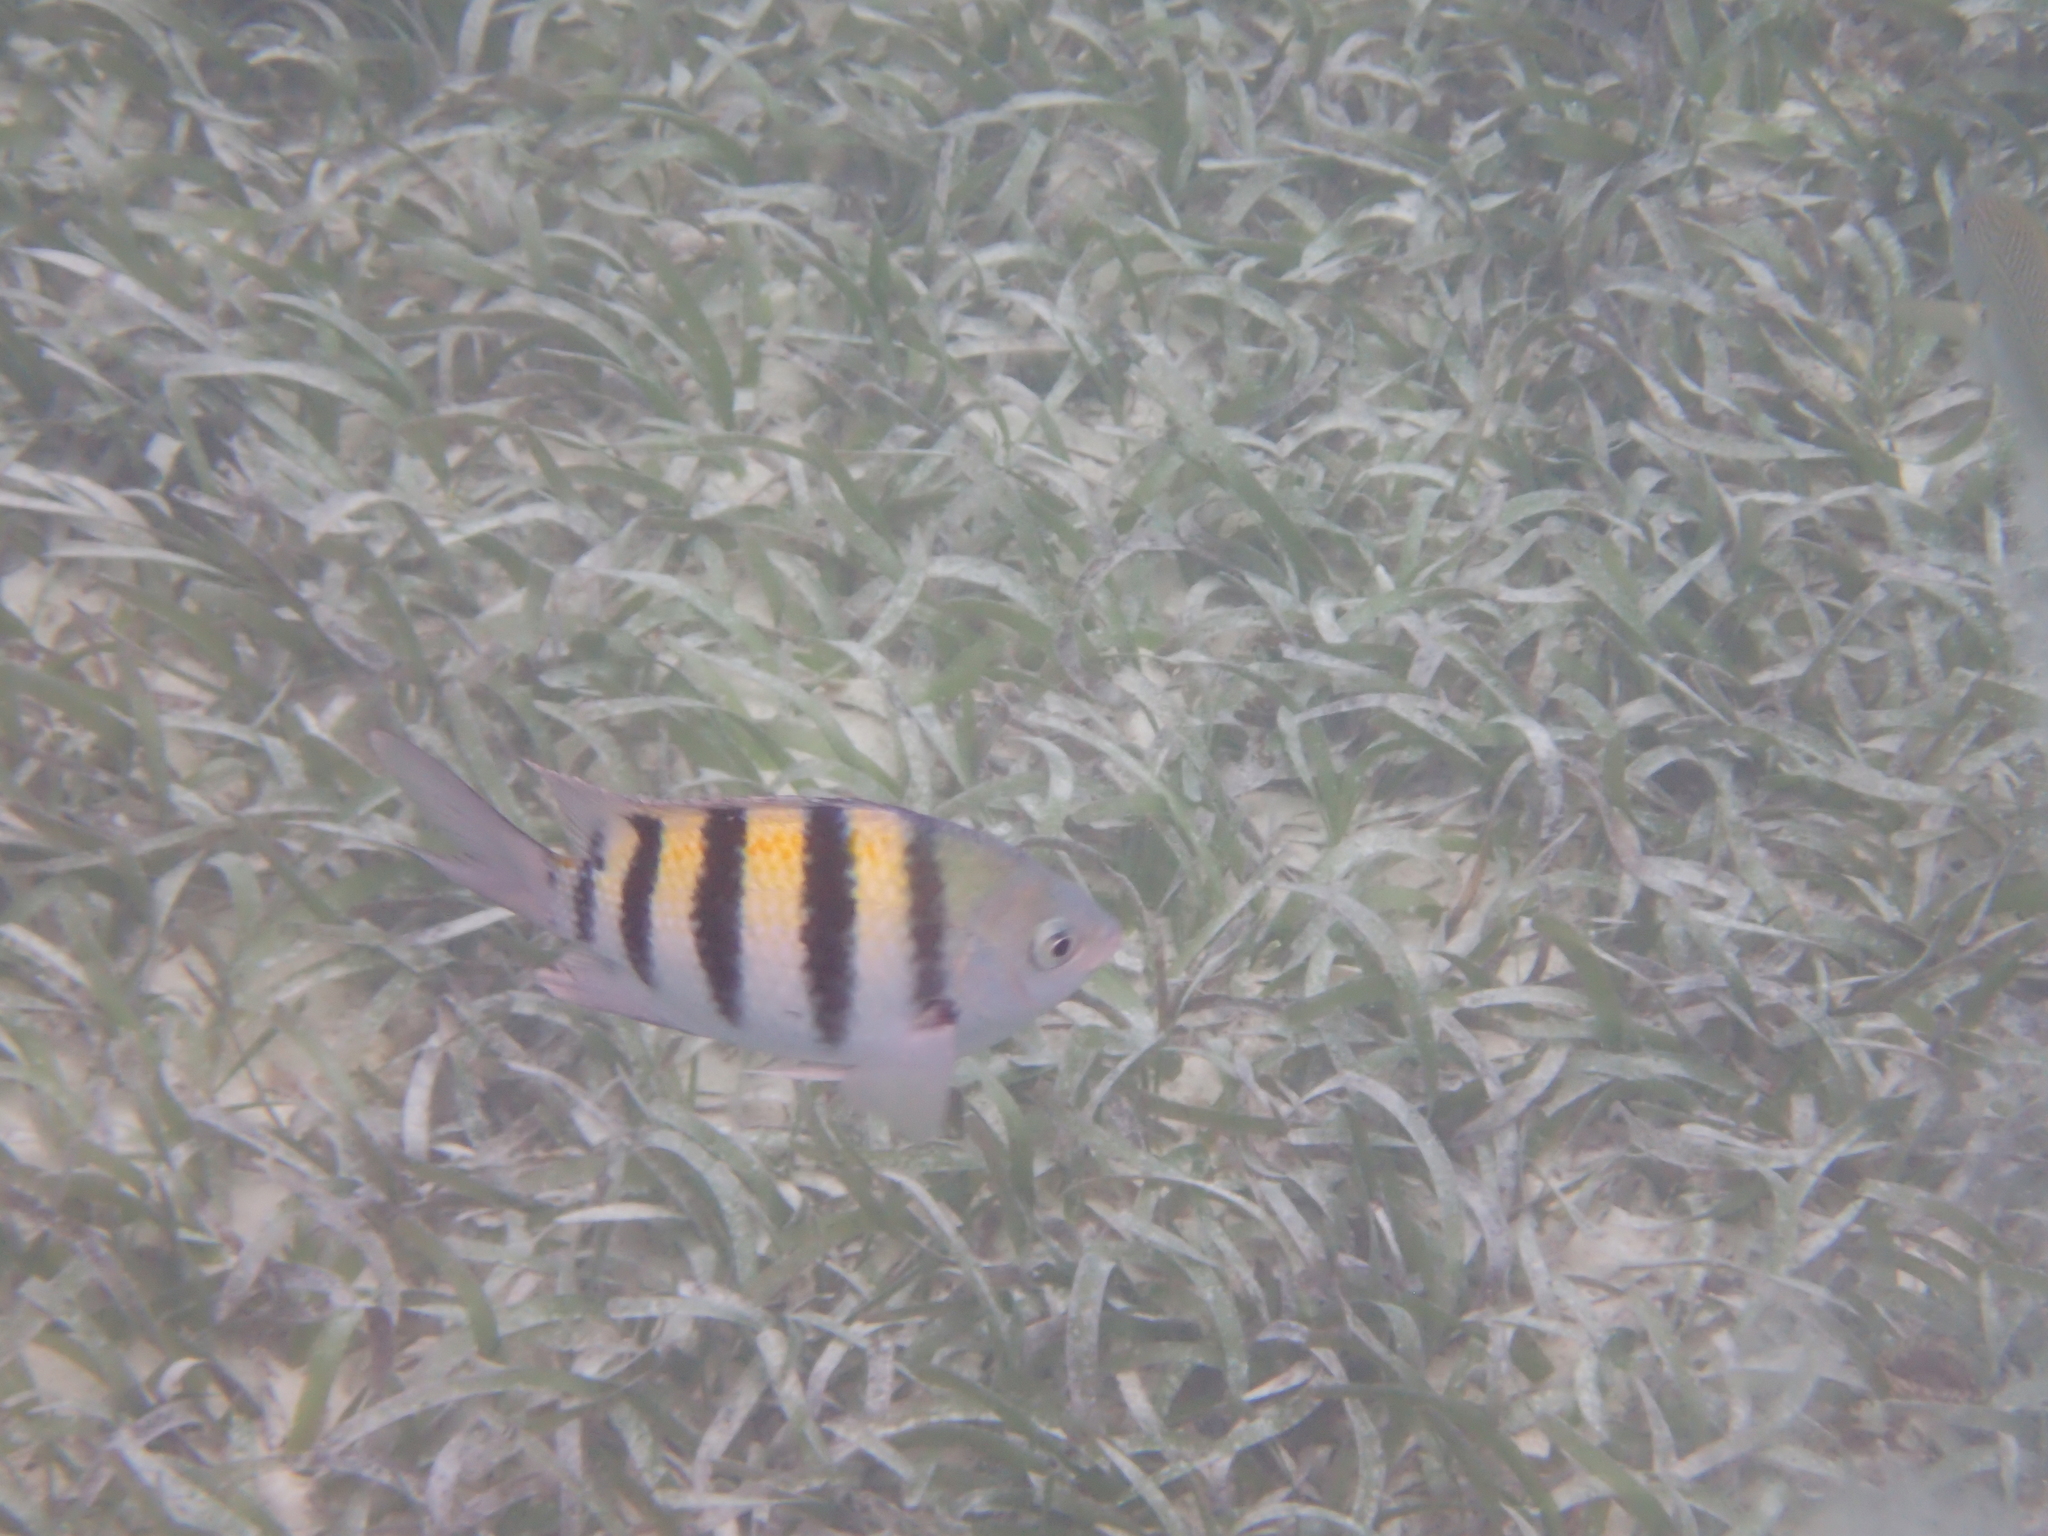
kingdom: Animalia
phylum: Chordata
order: Perciformes
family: Pomacentridae
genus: Abudefduf
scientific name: Abudefduf saxatilis
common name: Sergeant major
